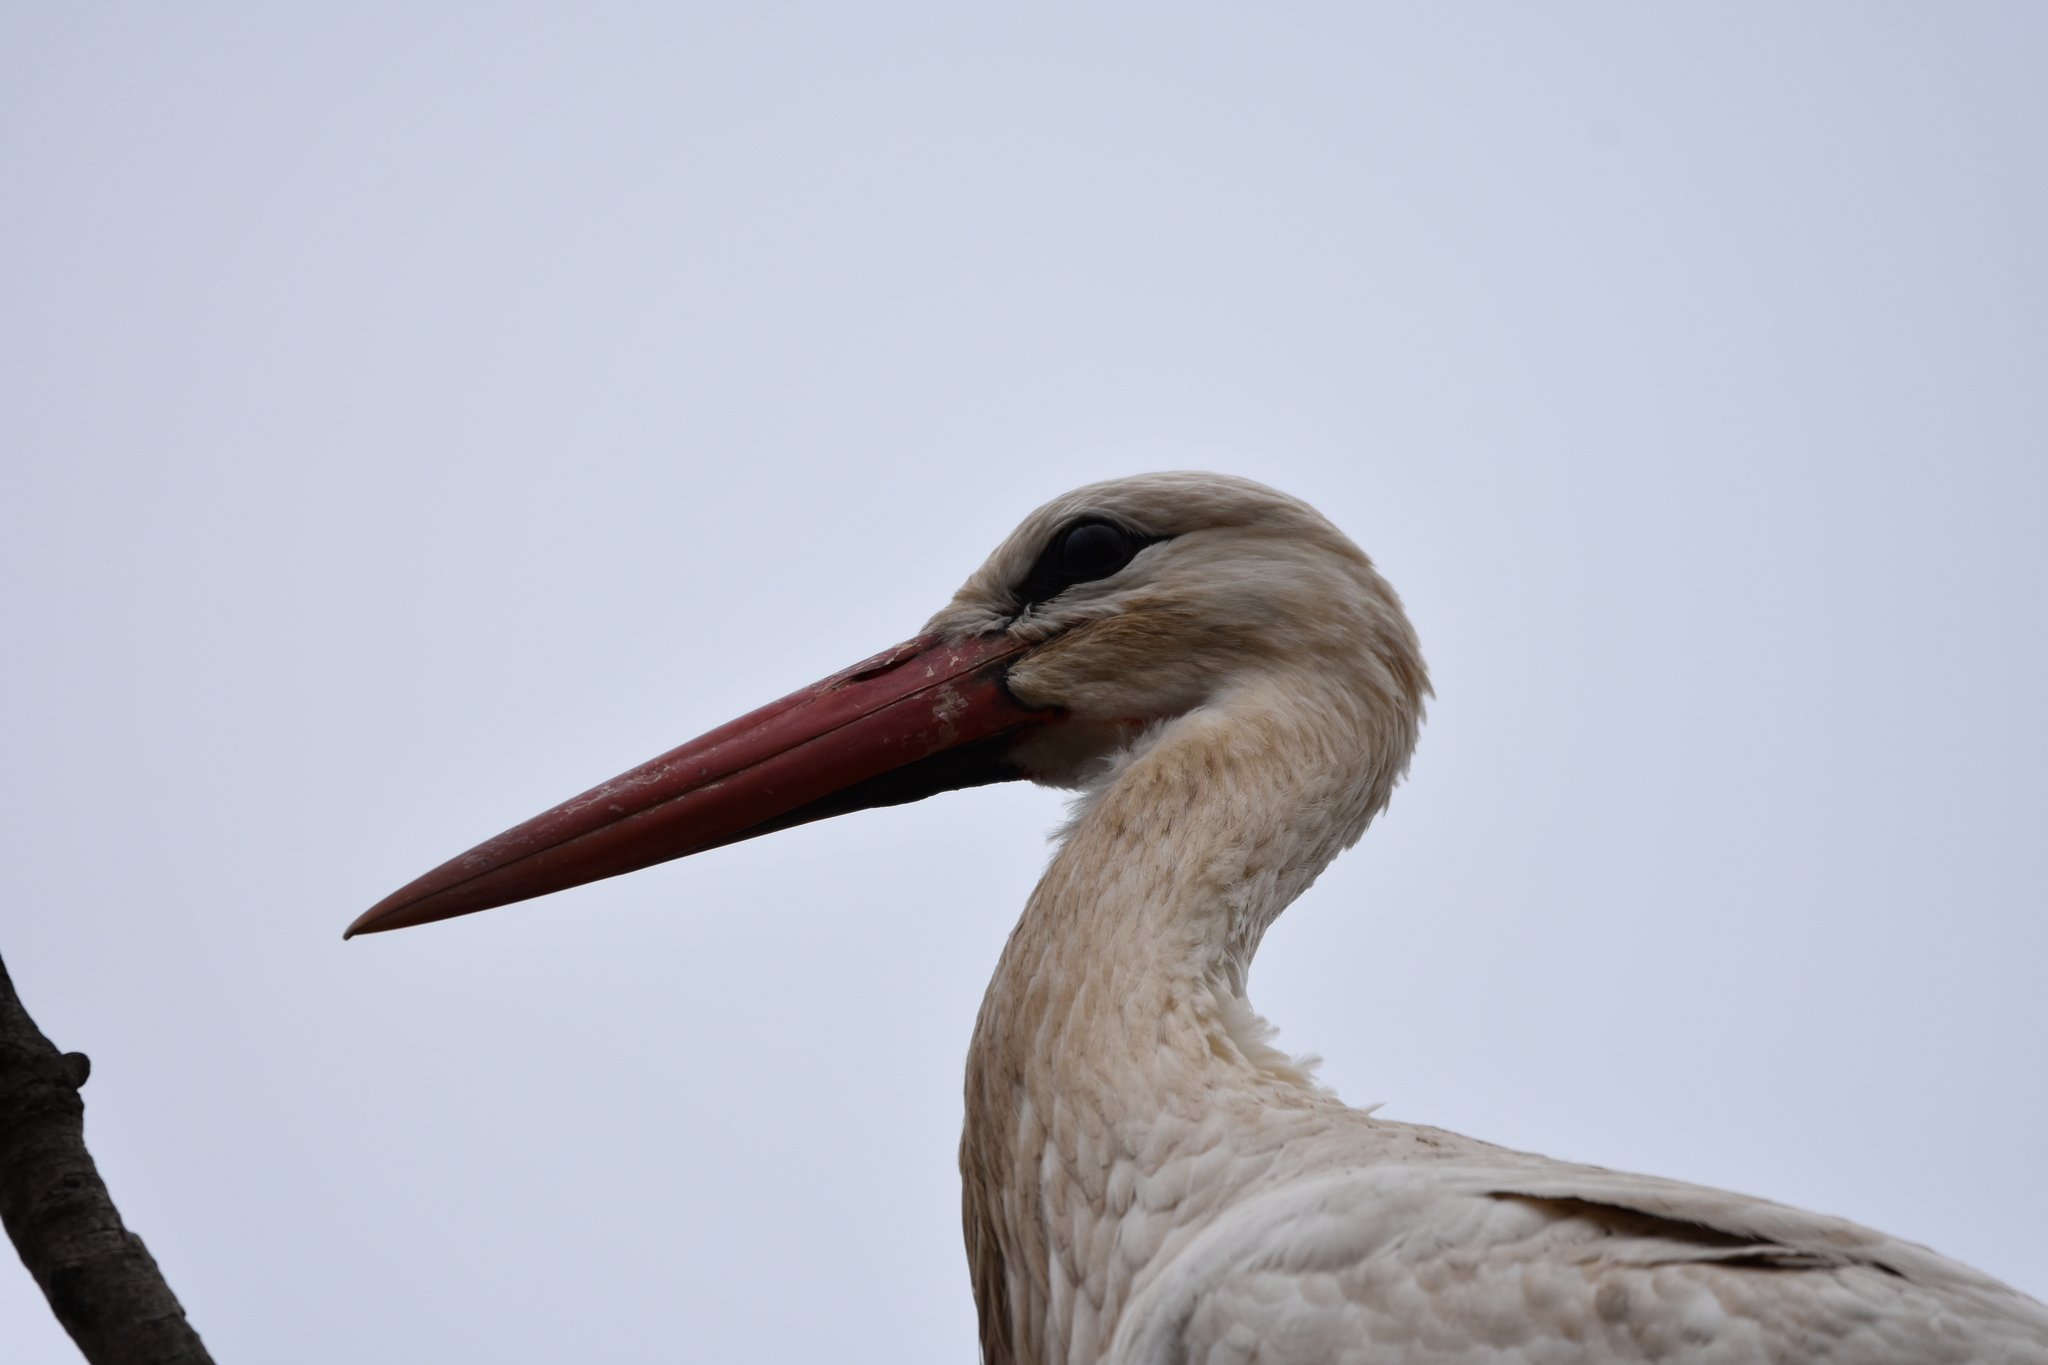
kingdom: Animalia
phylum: Chordata
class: Aves
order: Ciconiiformes
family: Ciconiidae
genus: Ciconia
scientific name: Ciconia ciconia
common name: White stork
